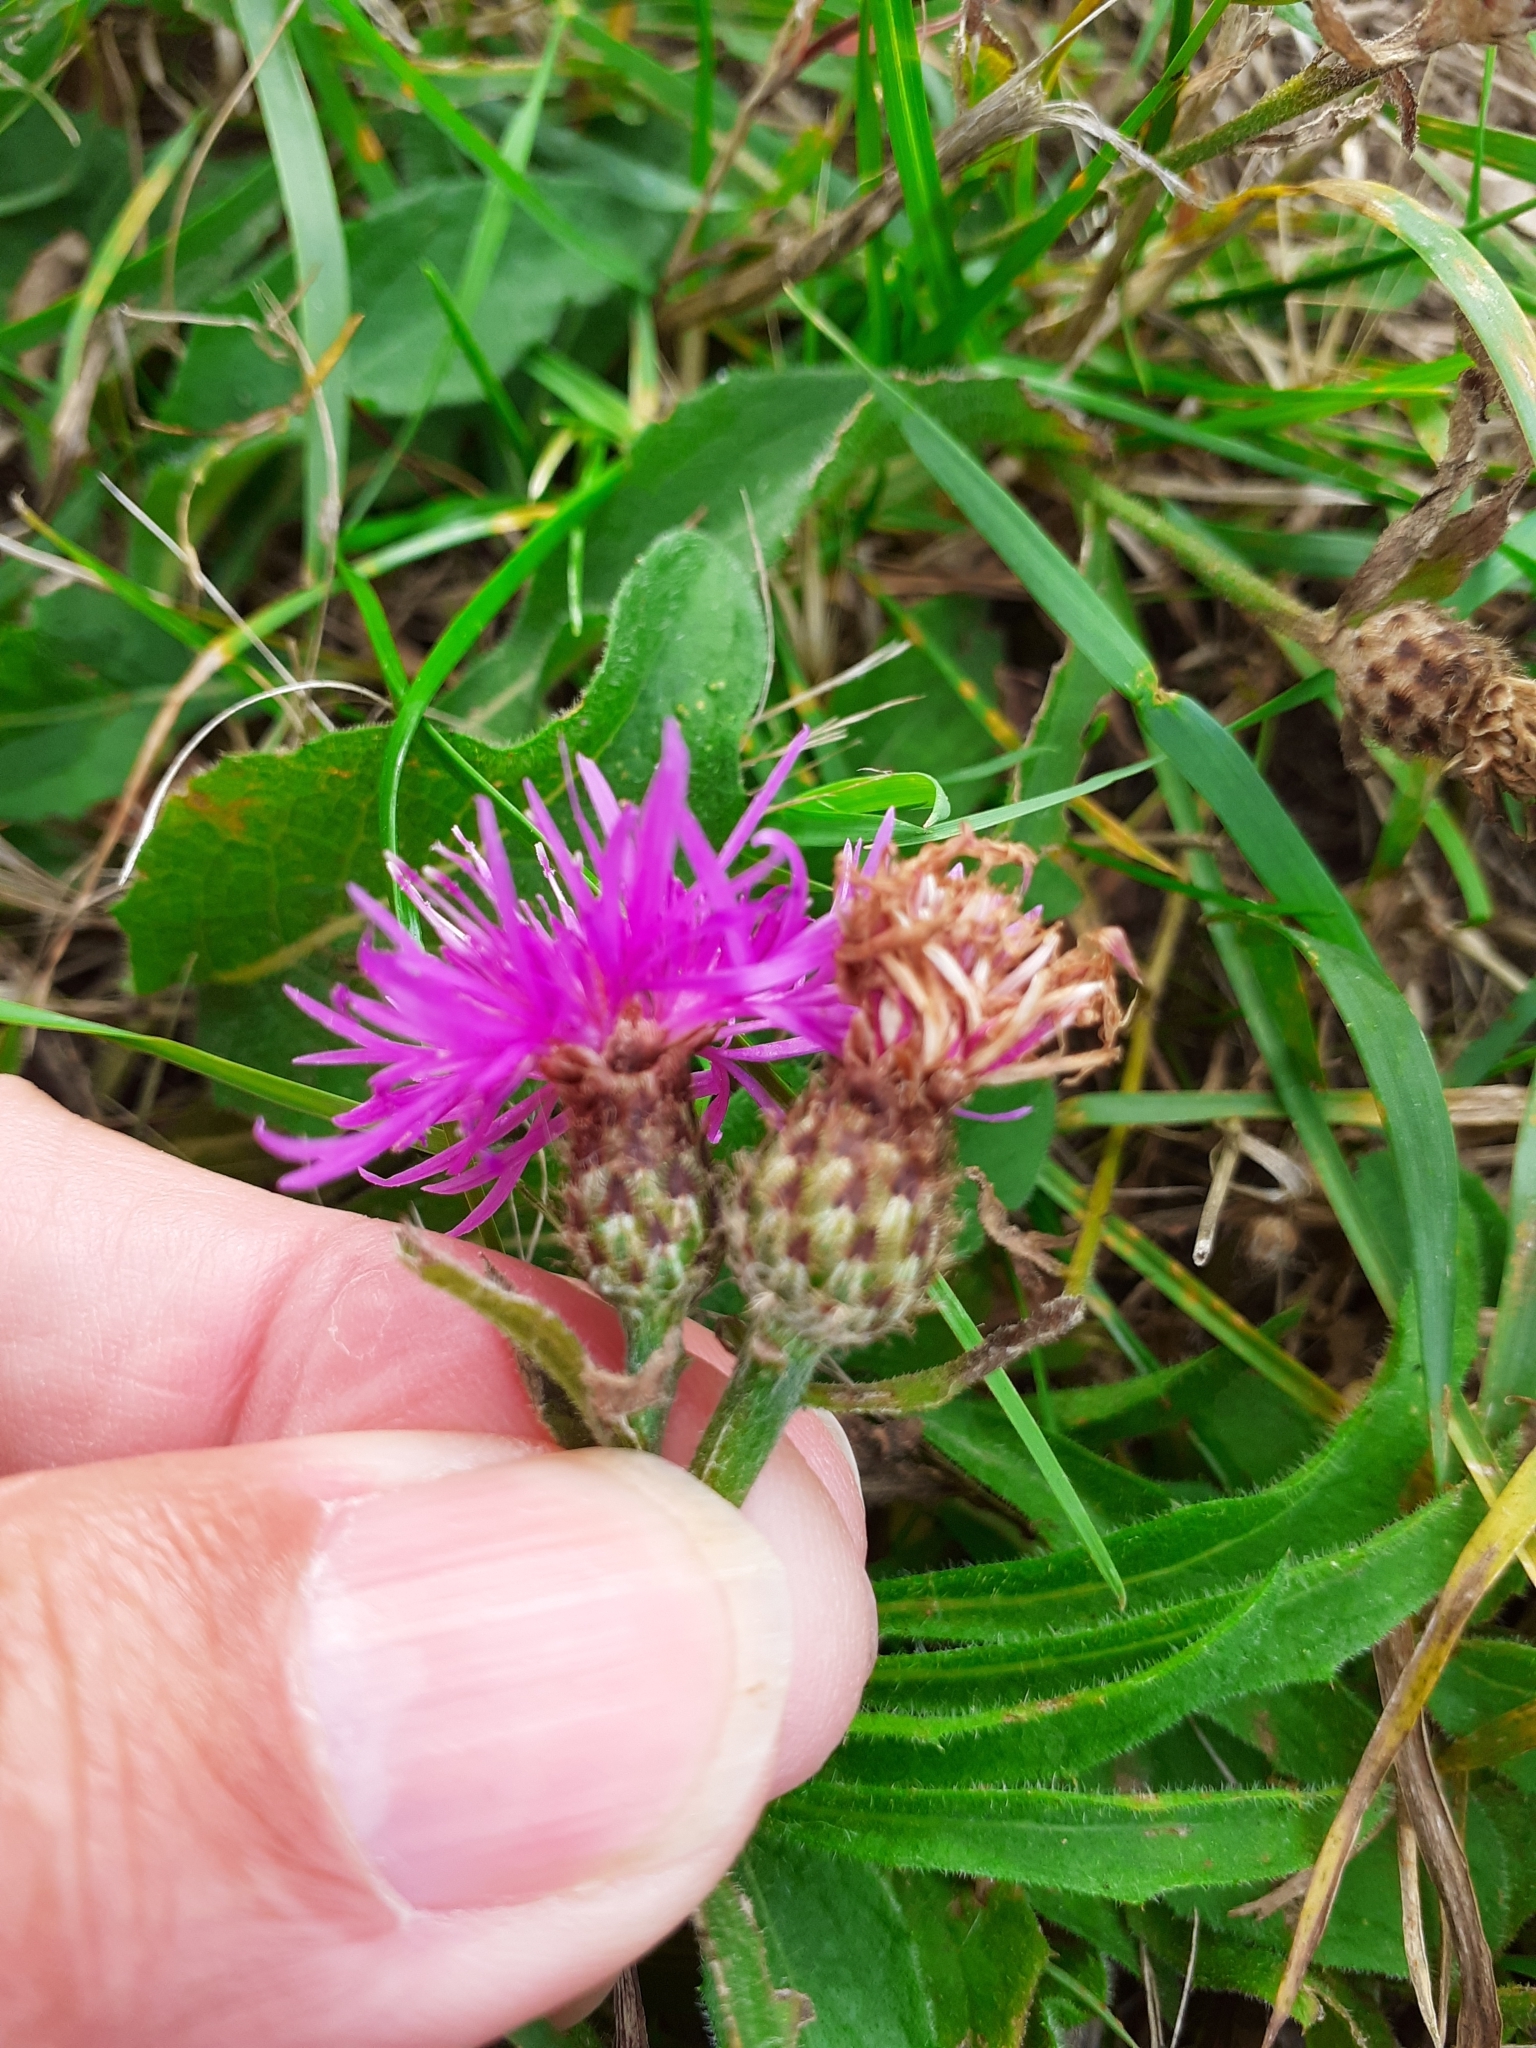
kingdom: Plantae
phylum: Tracheophyta
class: Magnoliopsida
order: Asterales
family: Asteraceae
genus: Centaurea
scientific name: Centaurea debeauxii
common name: Slender knapweed
